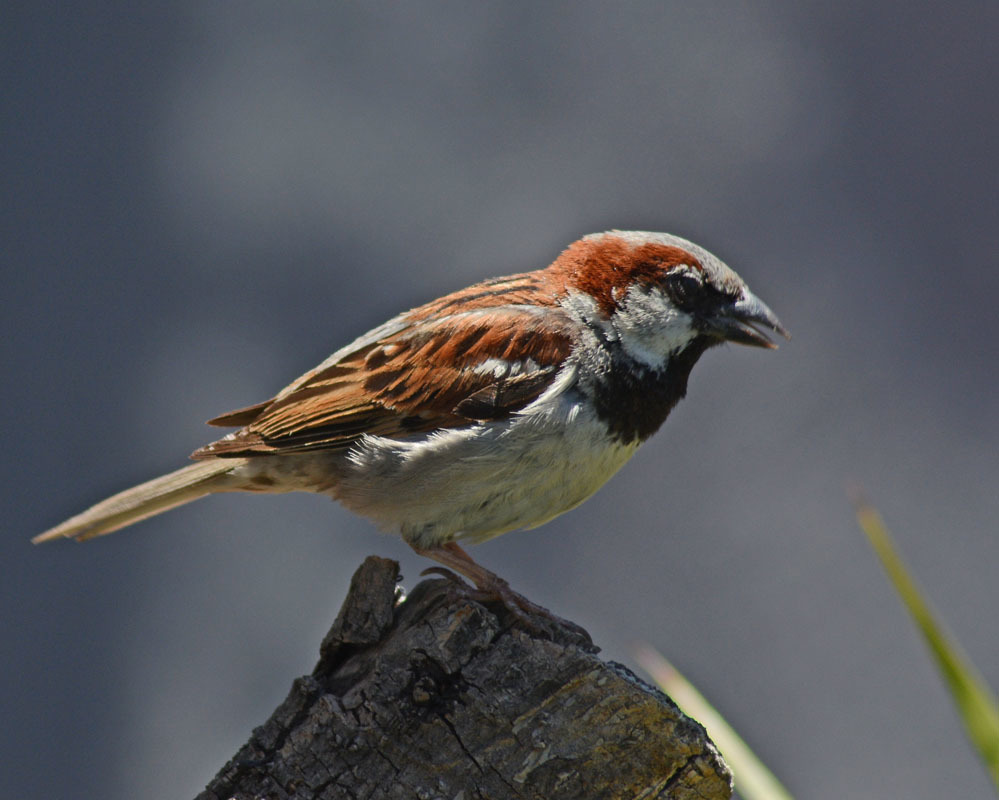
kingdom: Animalia
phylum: Chordata
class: Aves
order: Passeriformes
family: Passeridae
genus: Passer
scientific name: Passer domesticus
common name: House sparrow
